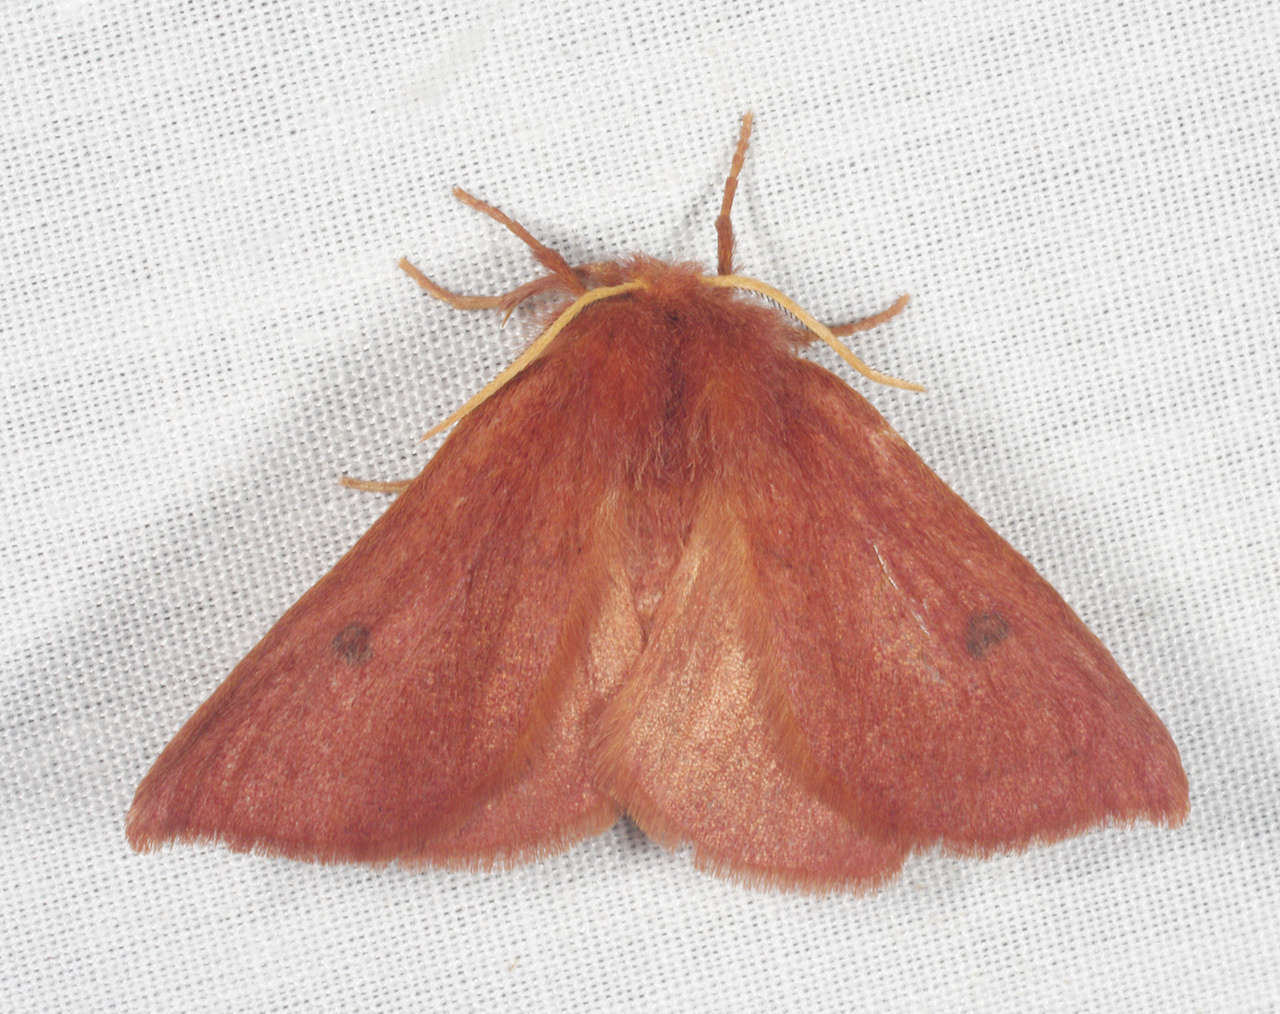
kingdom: Animalia
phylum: Arthropoda
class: Insecta
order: Lepidoptera
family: Anthelidae
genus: Anthela
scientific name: Anthela ferruginosa
